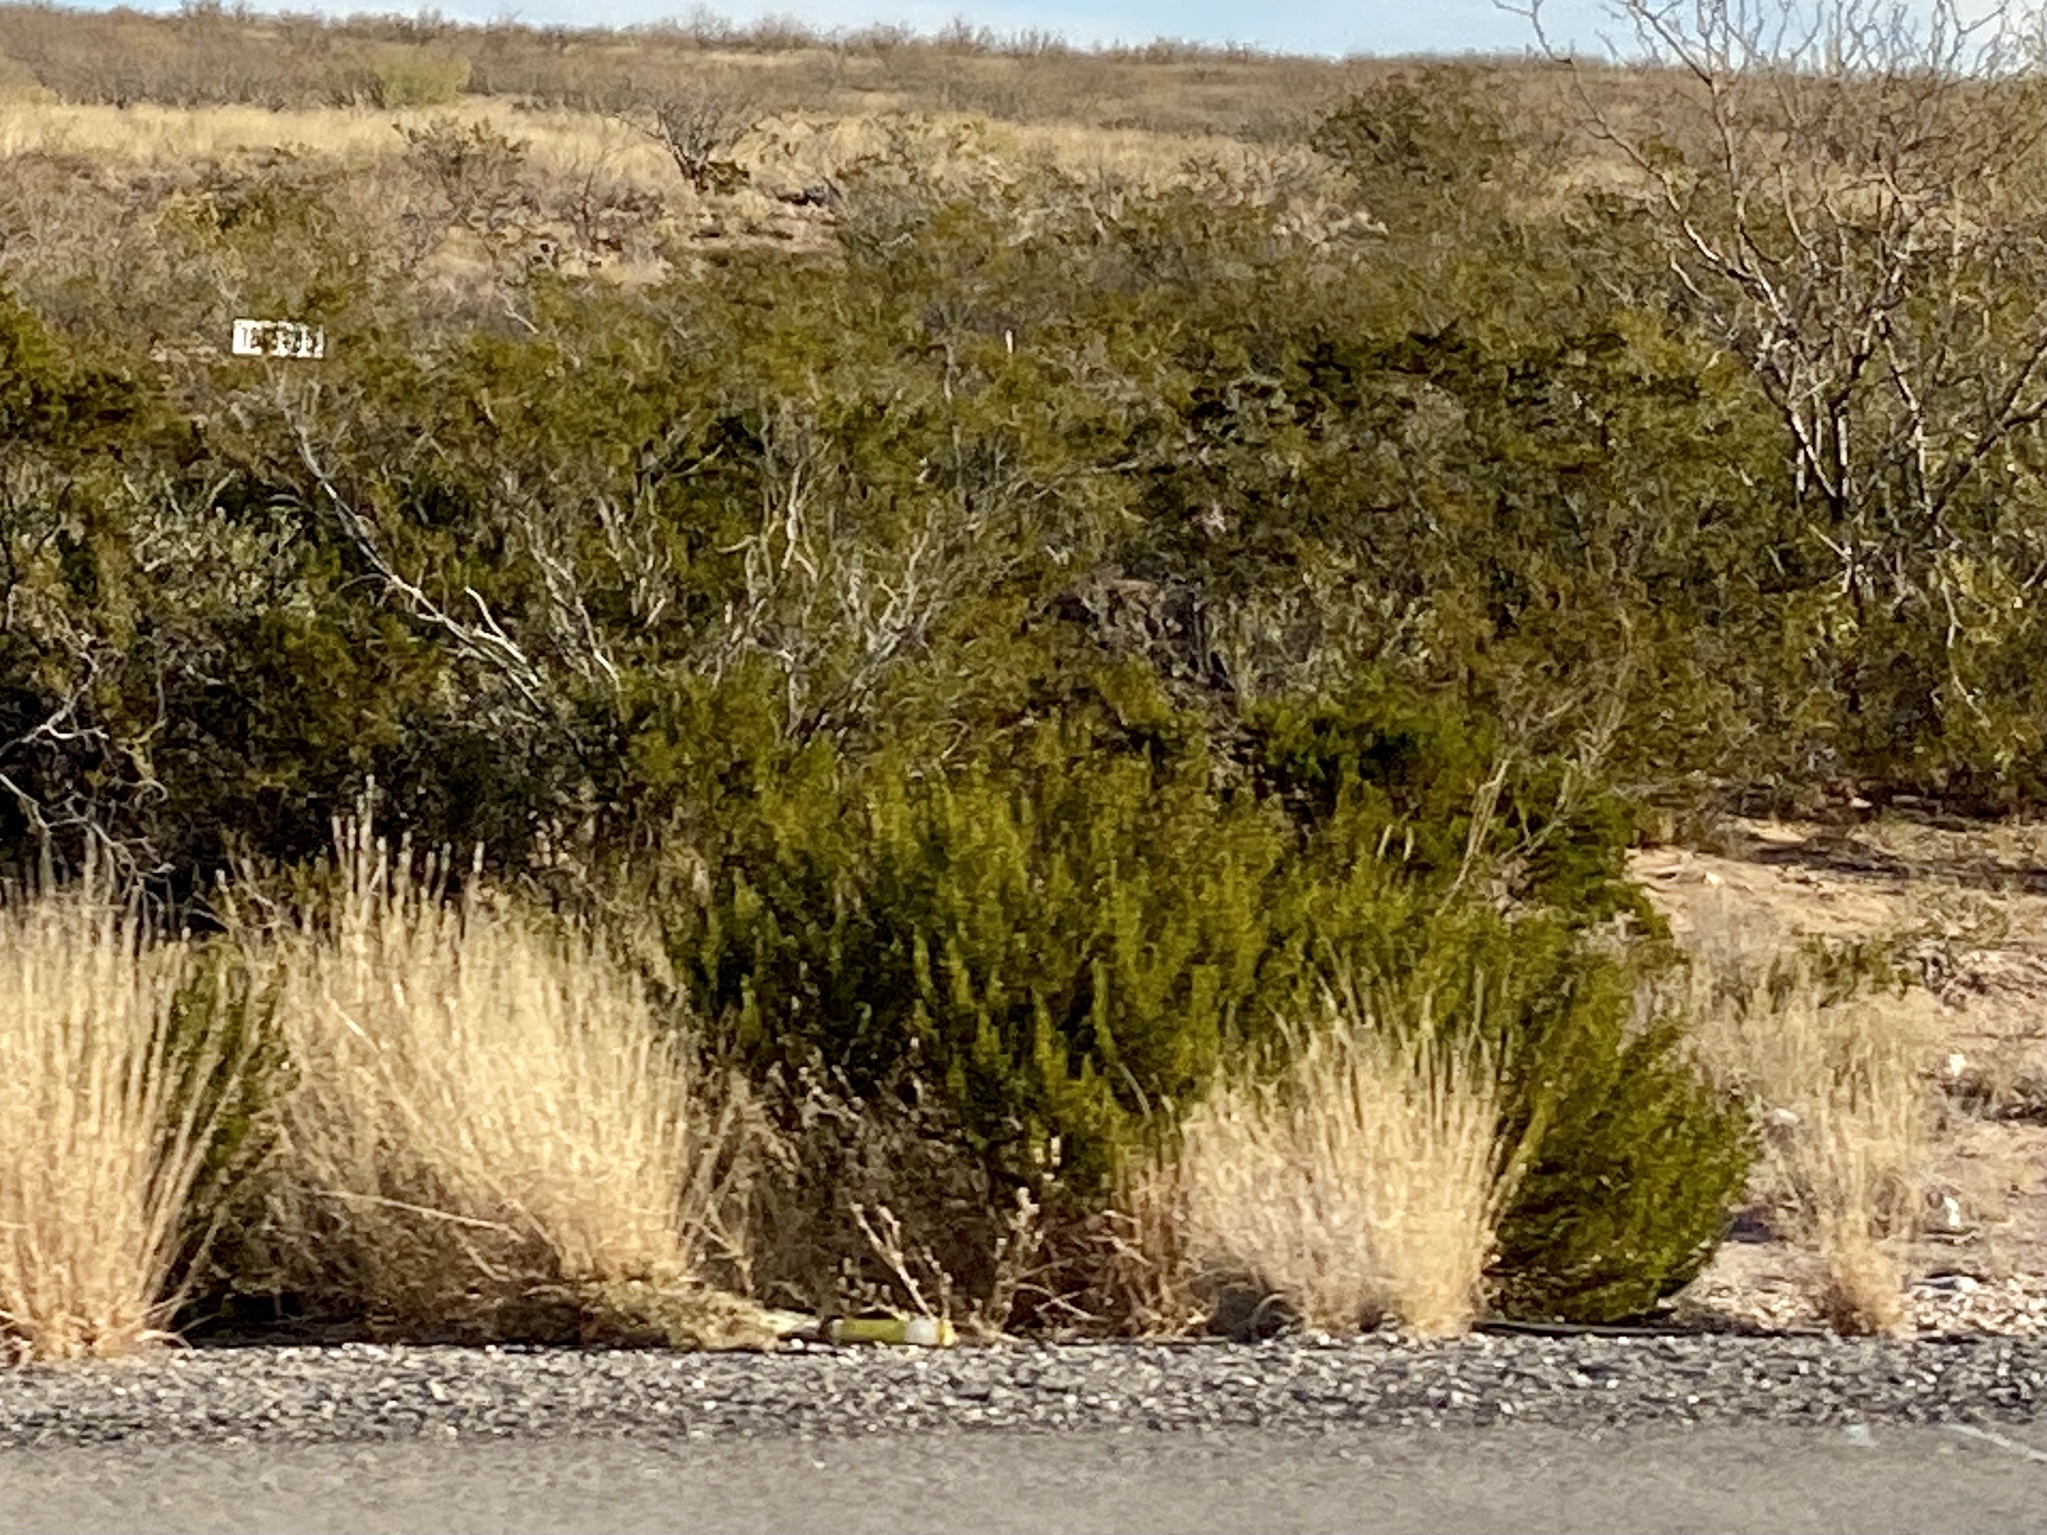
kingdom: Plantae
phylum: Tracheophyta
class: Magnoliopsida
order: Zygophyllales
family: Zygophyllaceae
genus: Larrea
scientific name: Larrea tridentata
